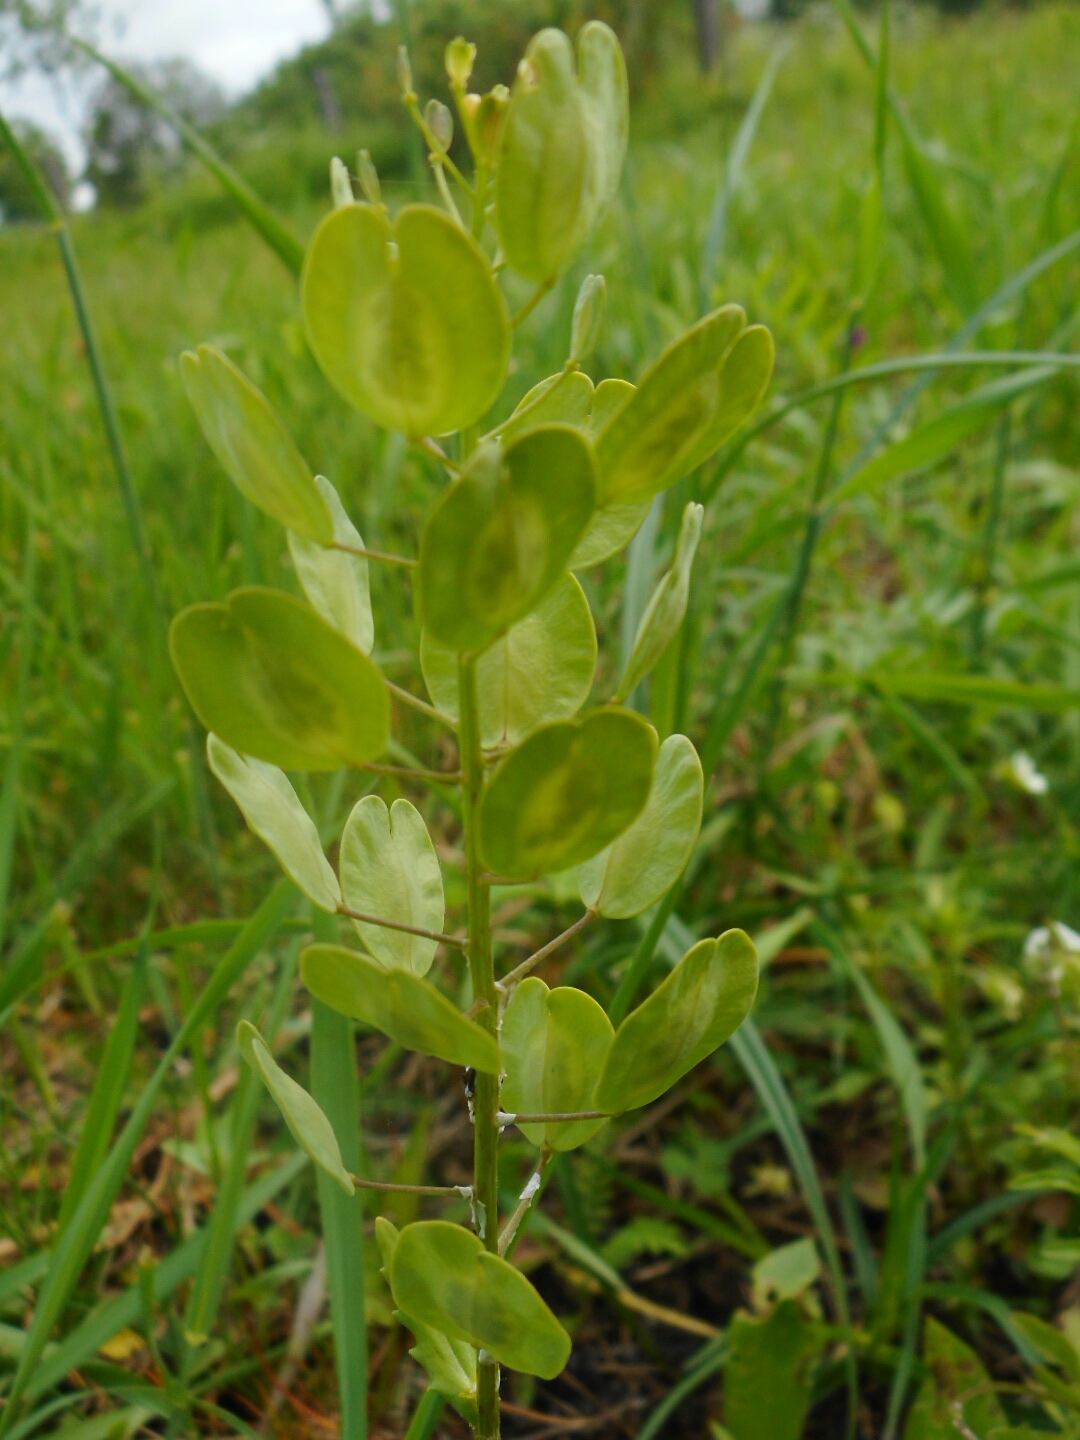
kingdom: Plantae
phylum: Tracheophyta
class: Magnoliopsida
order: Brassicales
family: Brassicaceae
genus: Thlaspi
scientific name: Thlaspi arvense
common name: Field pennycress
